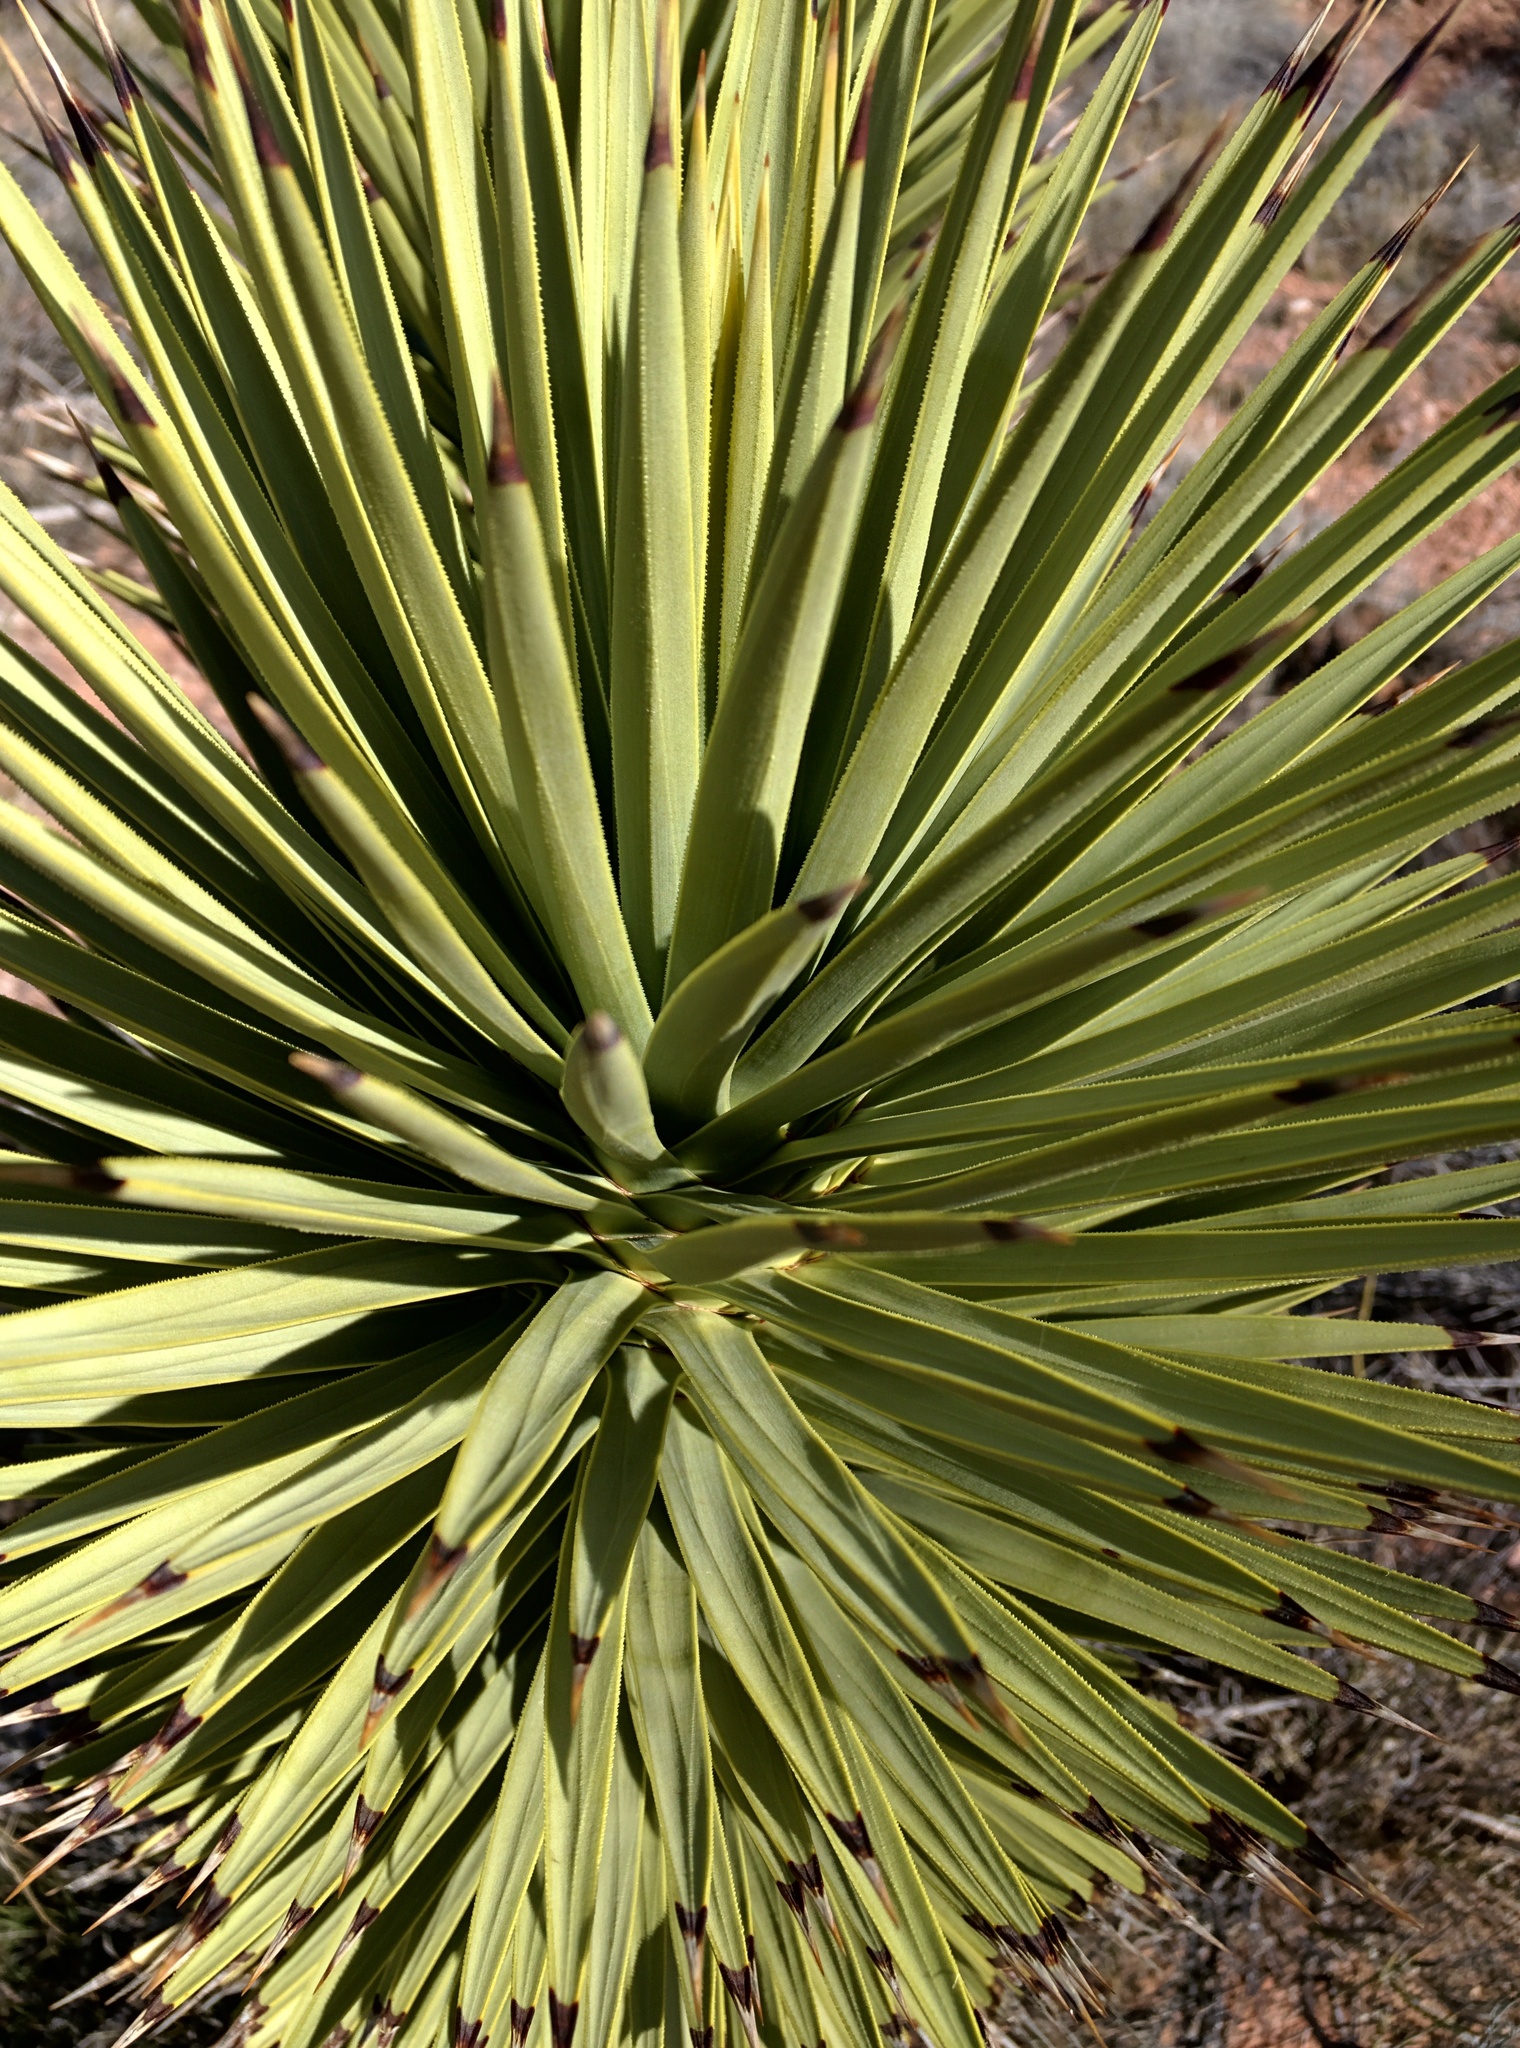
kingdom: Plantae
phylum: Tracheophyta
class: Liliopsida
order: Asparagales
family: Asparagaceae
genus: Yucca
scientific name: Yucca brevifolia
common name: Joshua tree
